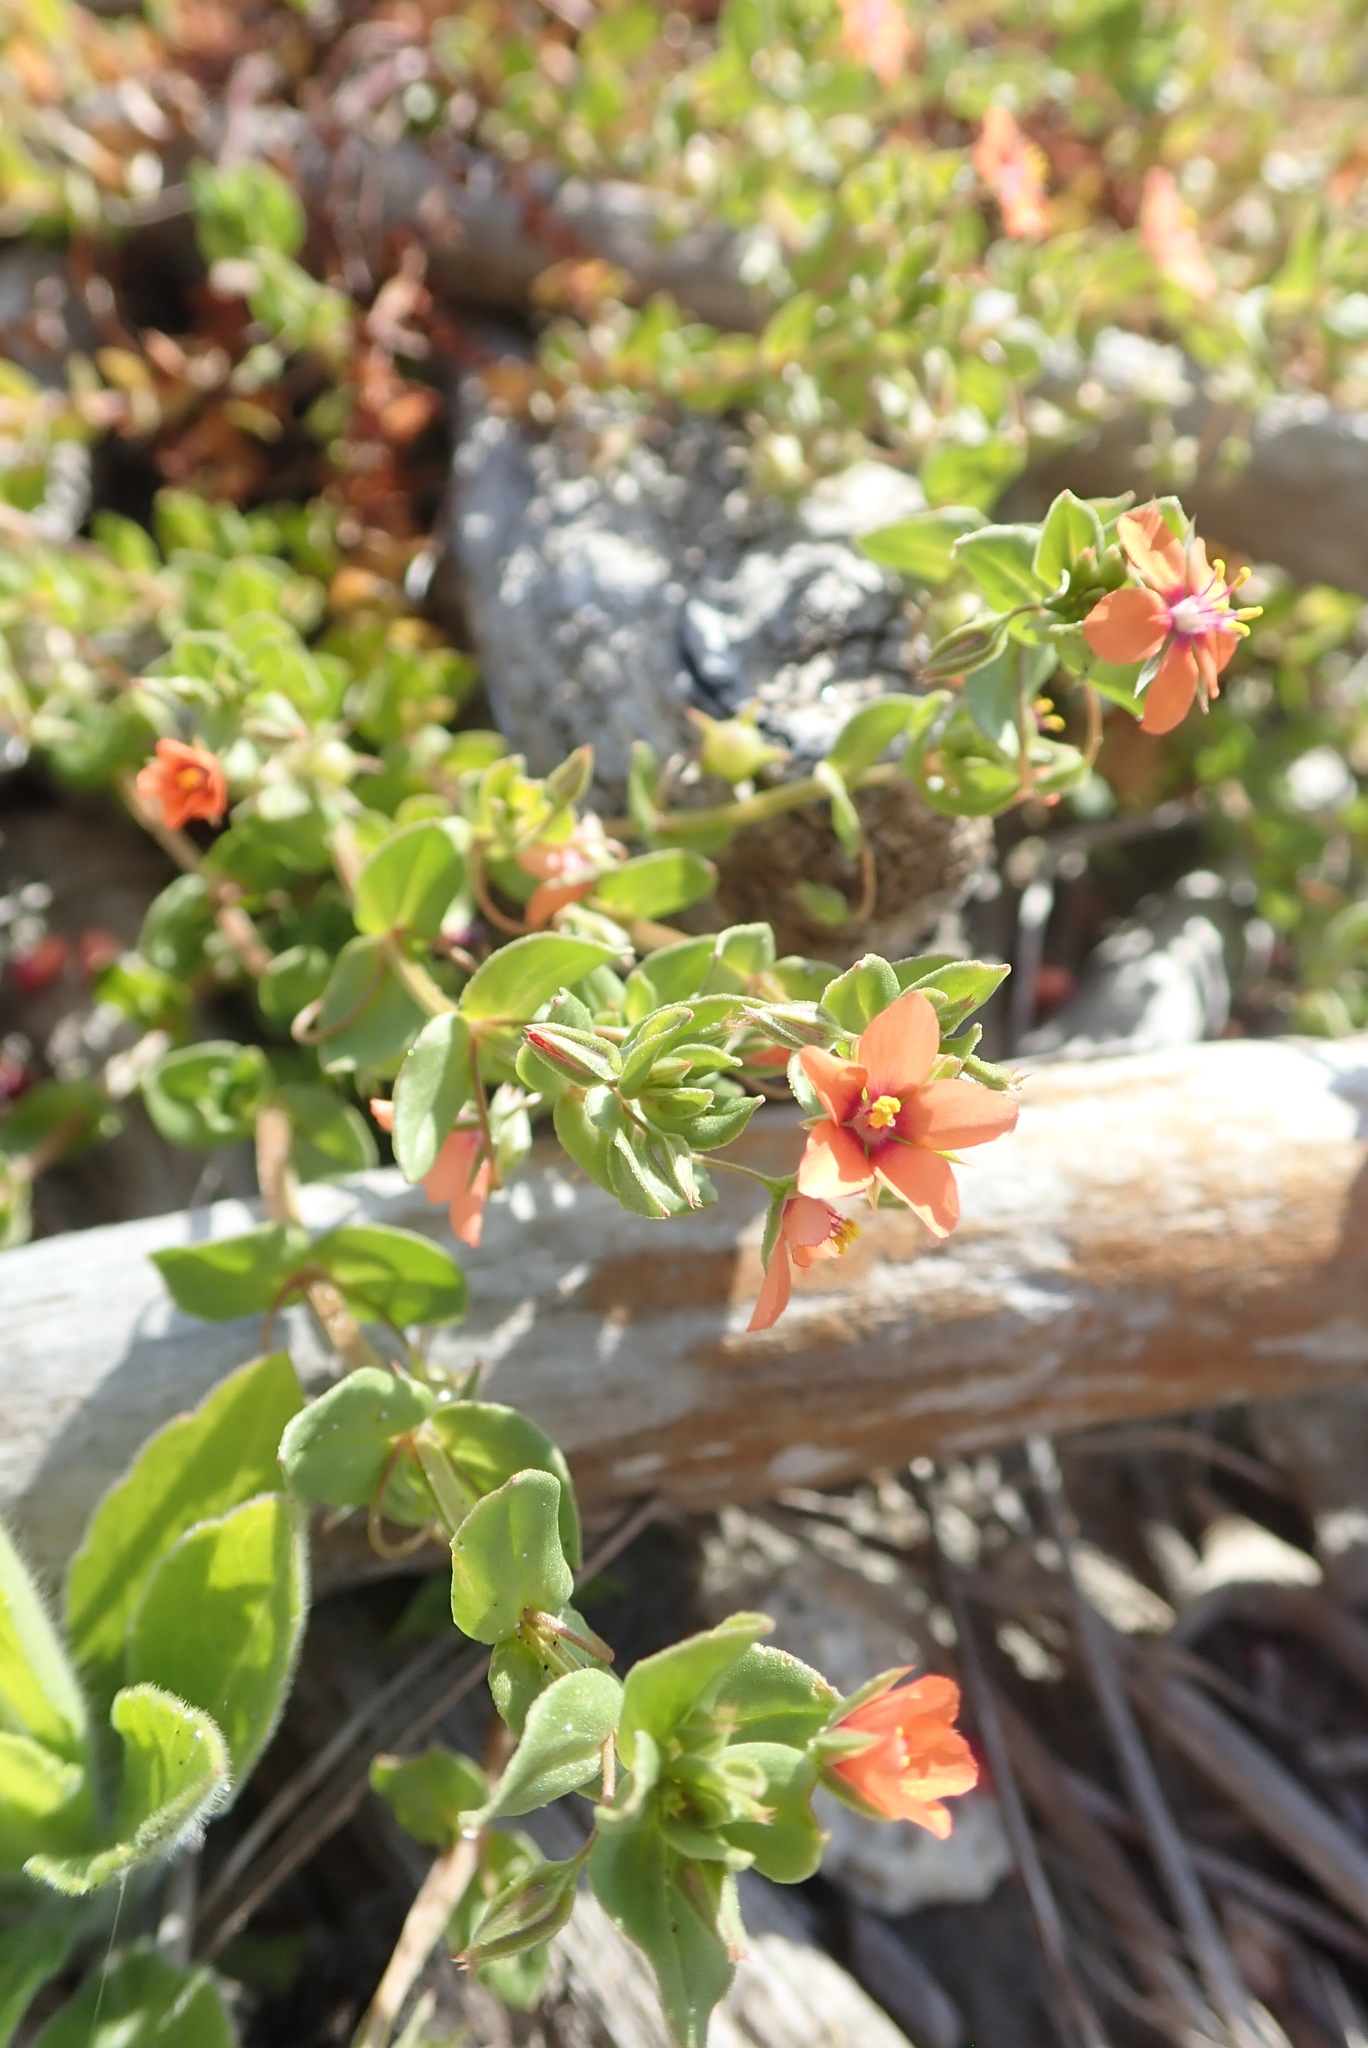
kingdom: Plantae
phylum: Tracheophyta
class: Magnoliopsida
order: Ericales
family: Primulaceae
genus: Lysimachia
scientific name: Lysimachia arvensis
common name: Scarlet pimpernel
